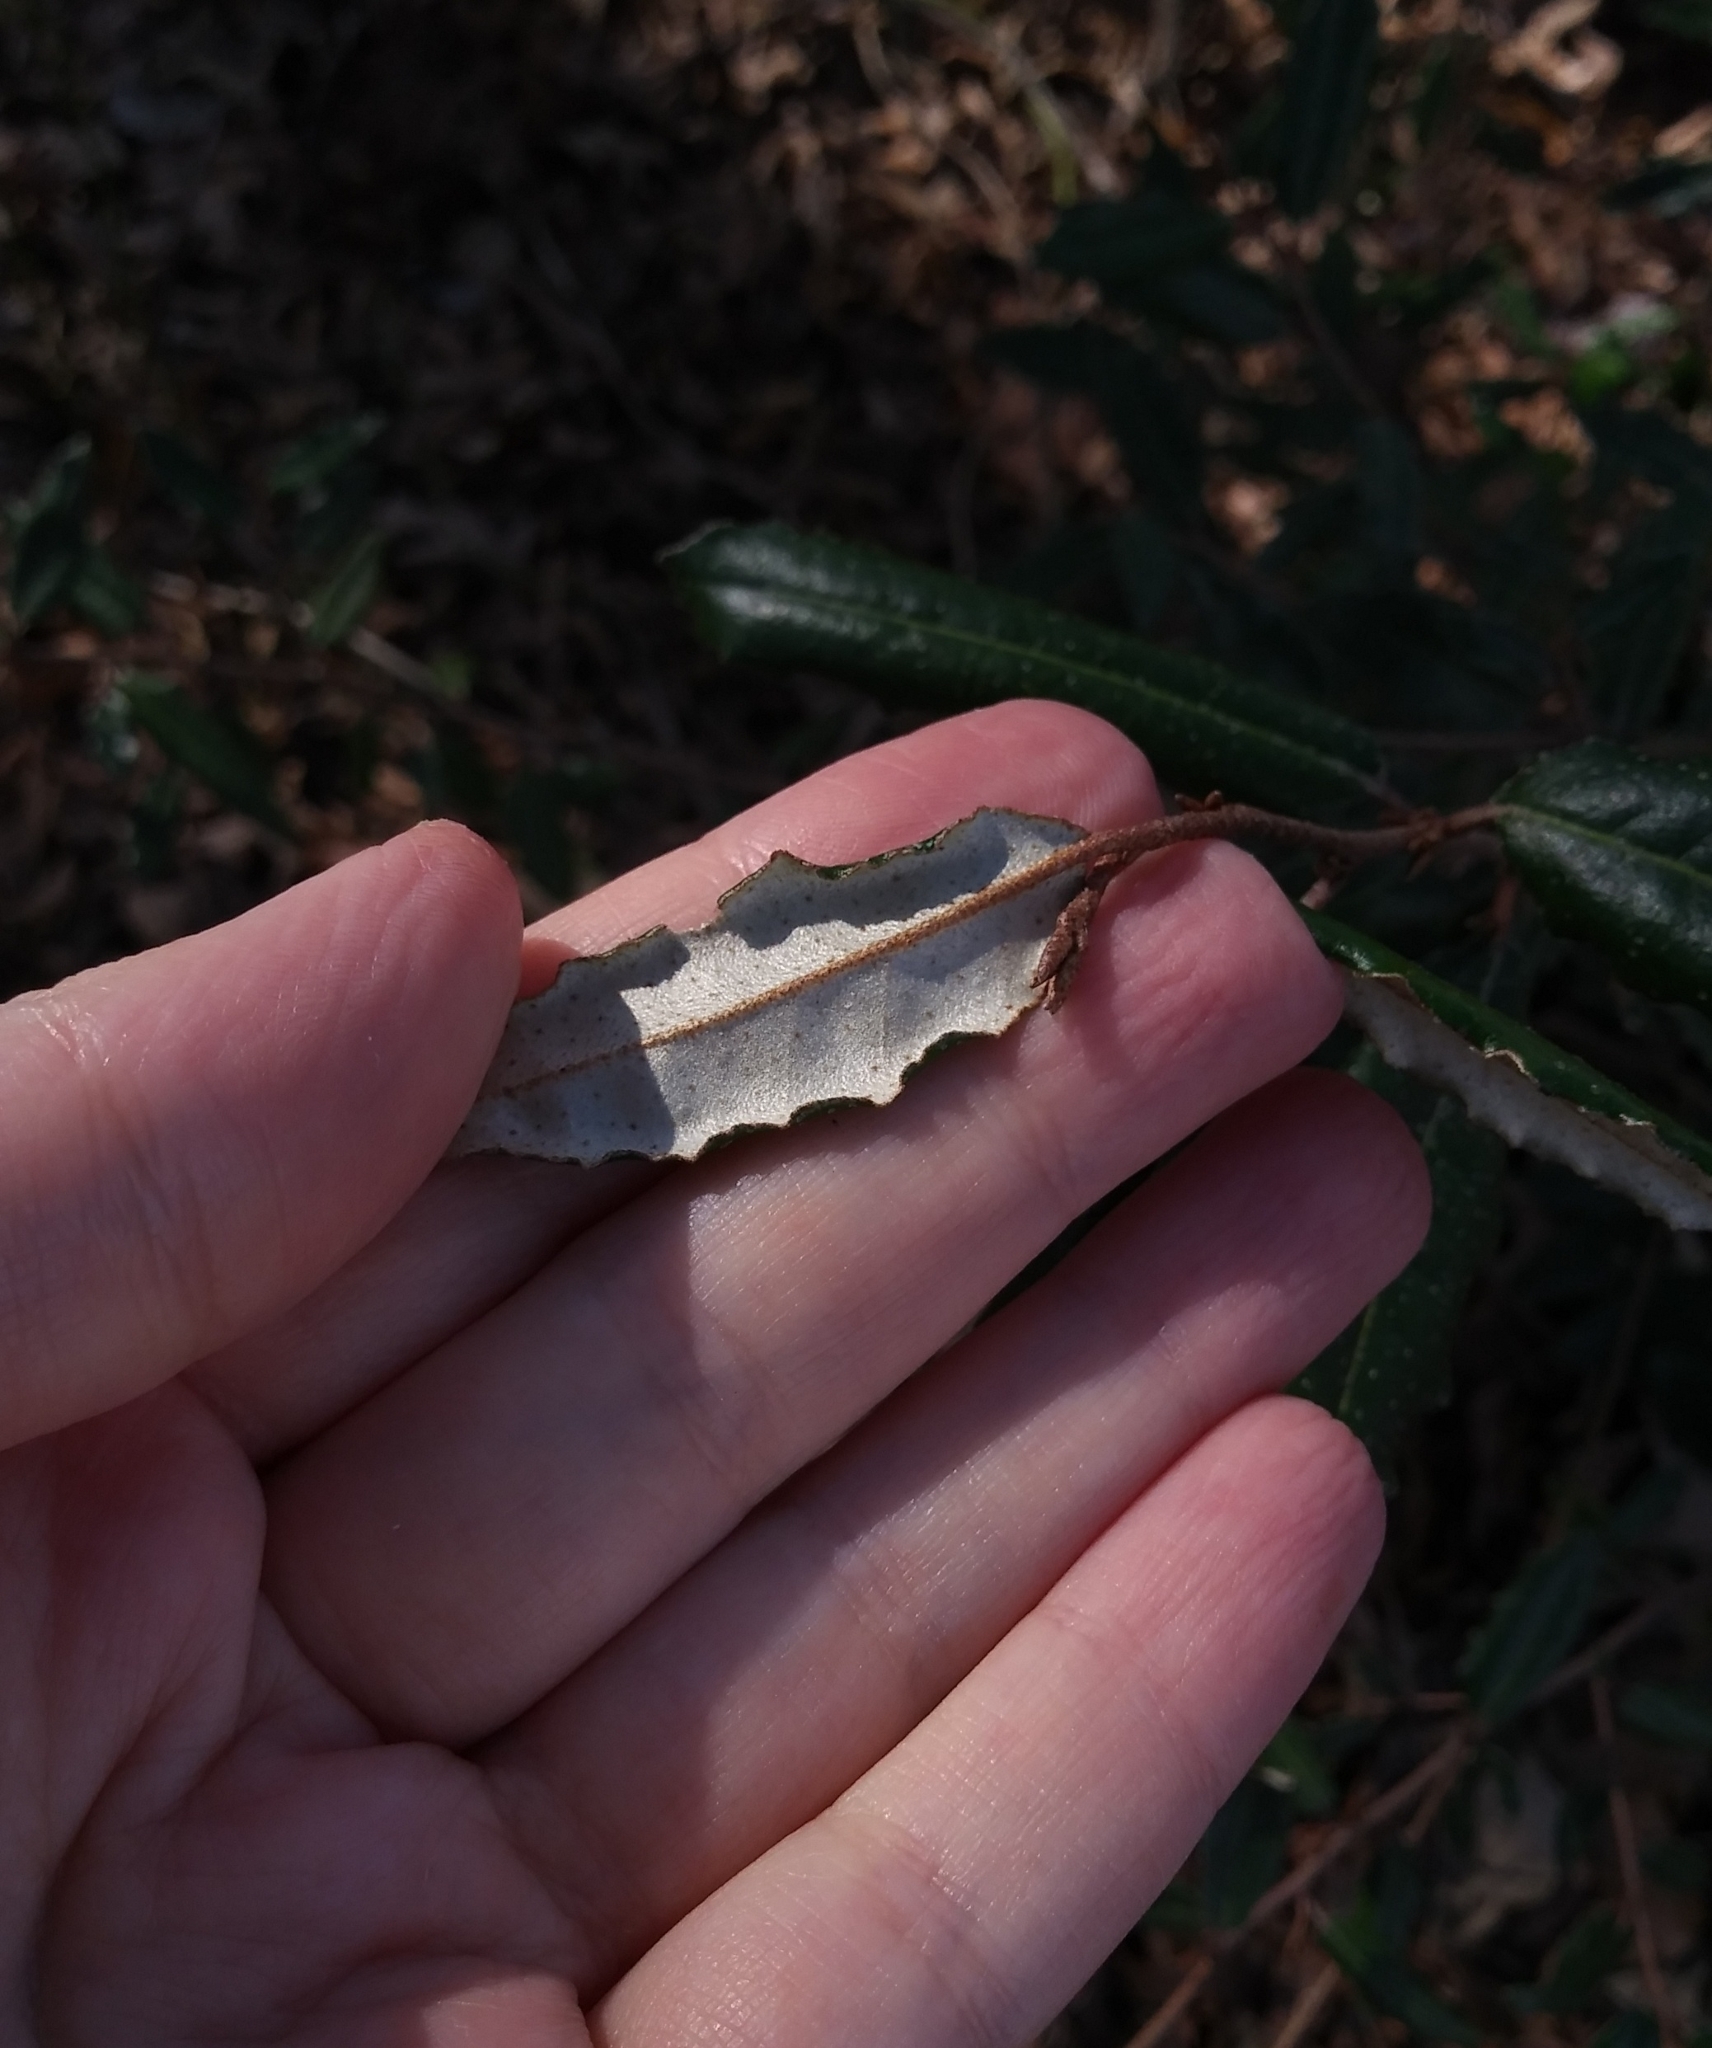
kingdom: Plantae
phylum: Tracheophyta
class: Magnoliopsida
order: Rosales
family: Elaeagnaceae
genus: Elaeagnus
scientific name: Elaeagnus pungens
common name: Spiny oleaster
